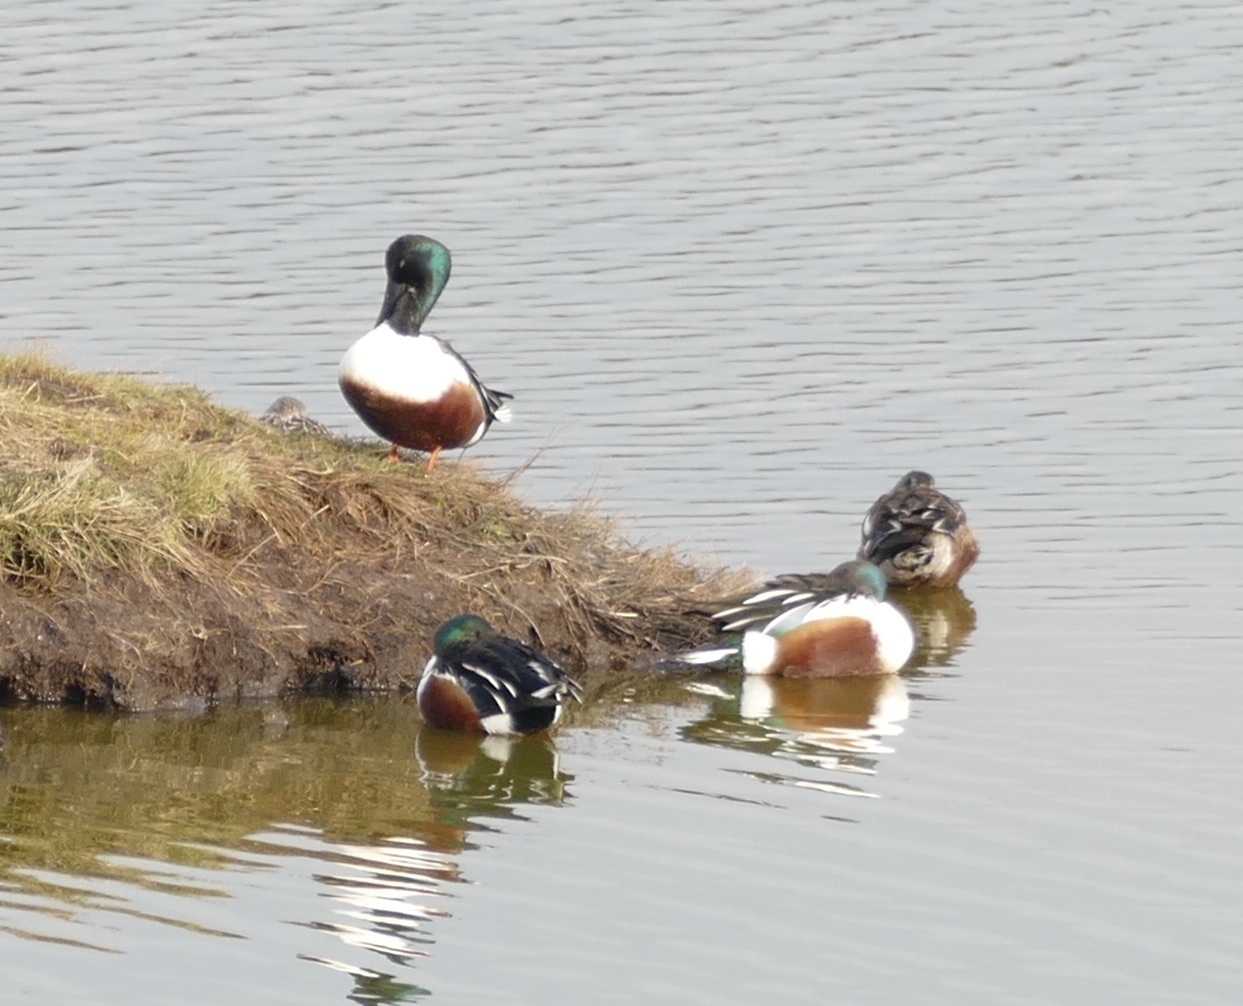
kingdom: Animalia
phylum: Chordata
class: Aves
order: Anseriformes
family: Anatidae
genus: Spatula
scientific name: Spatula clypeata
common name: Northern shoveler
